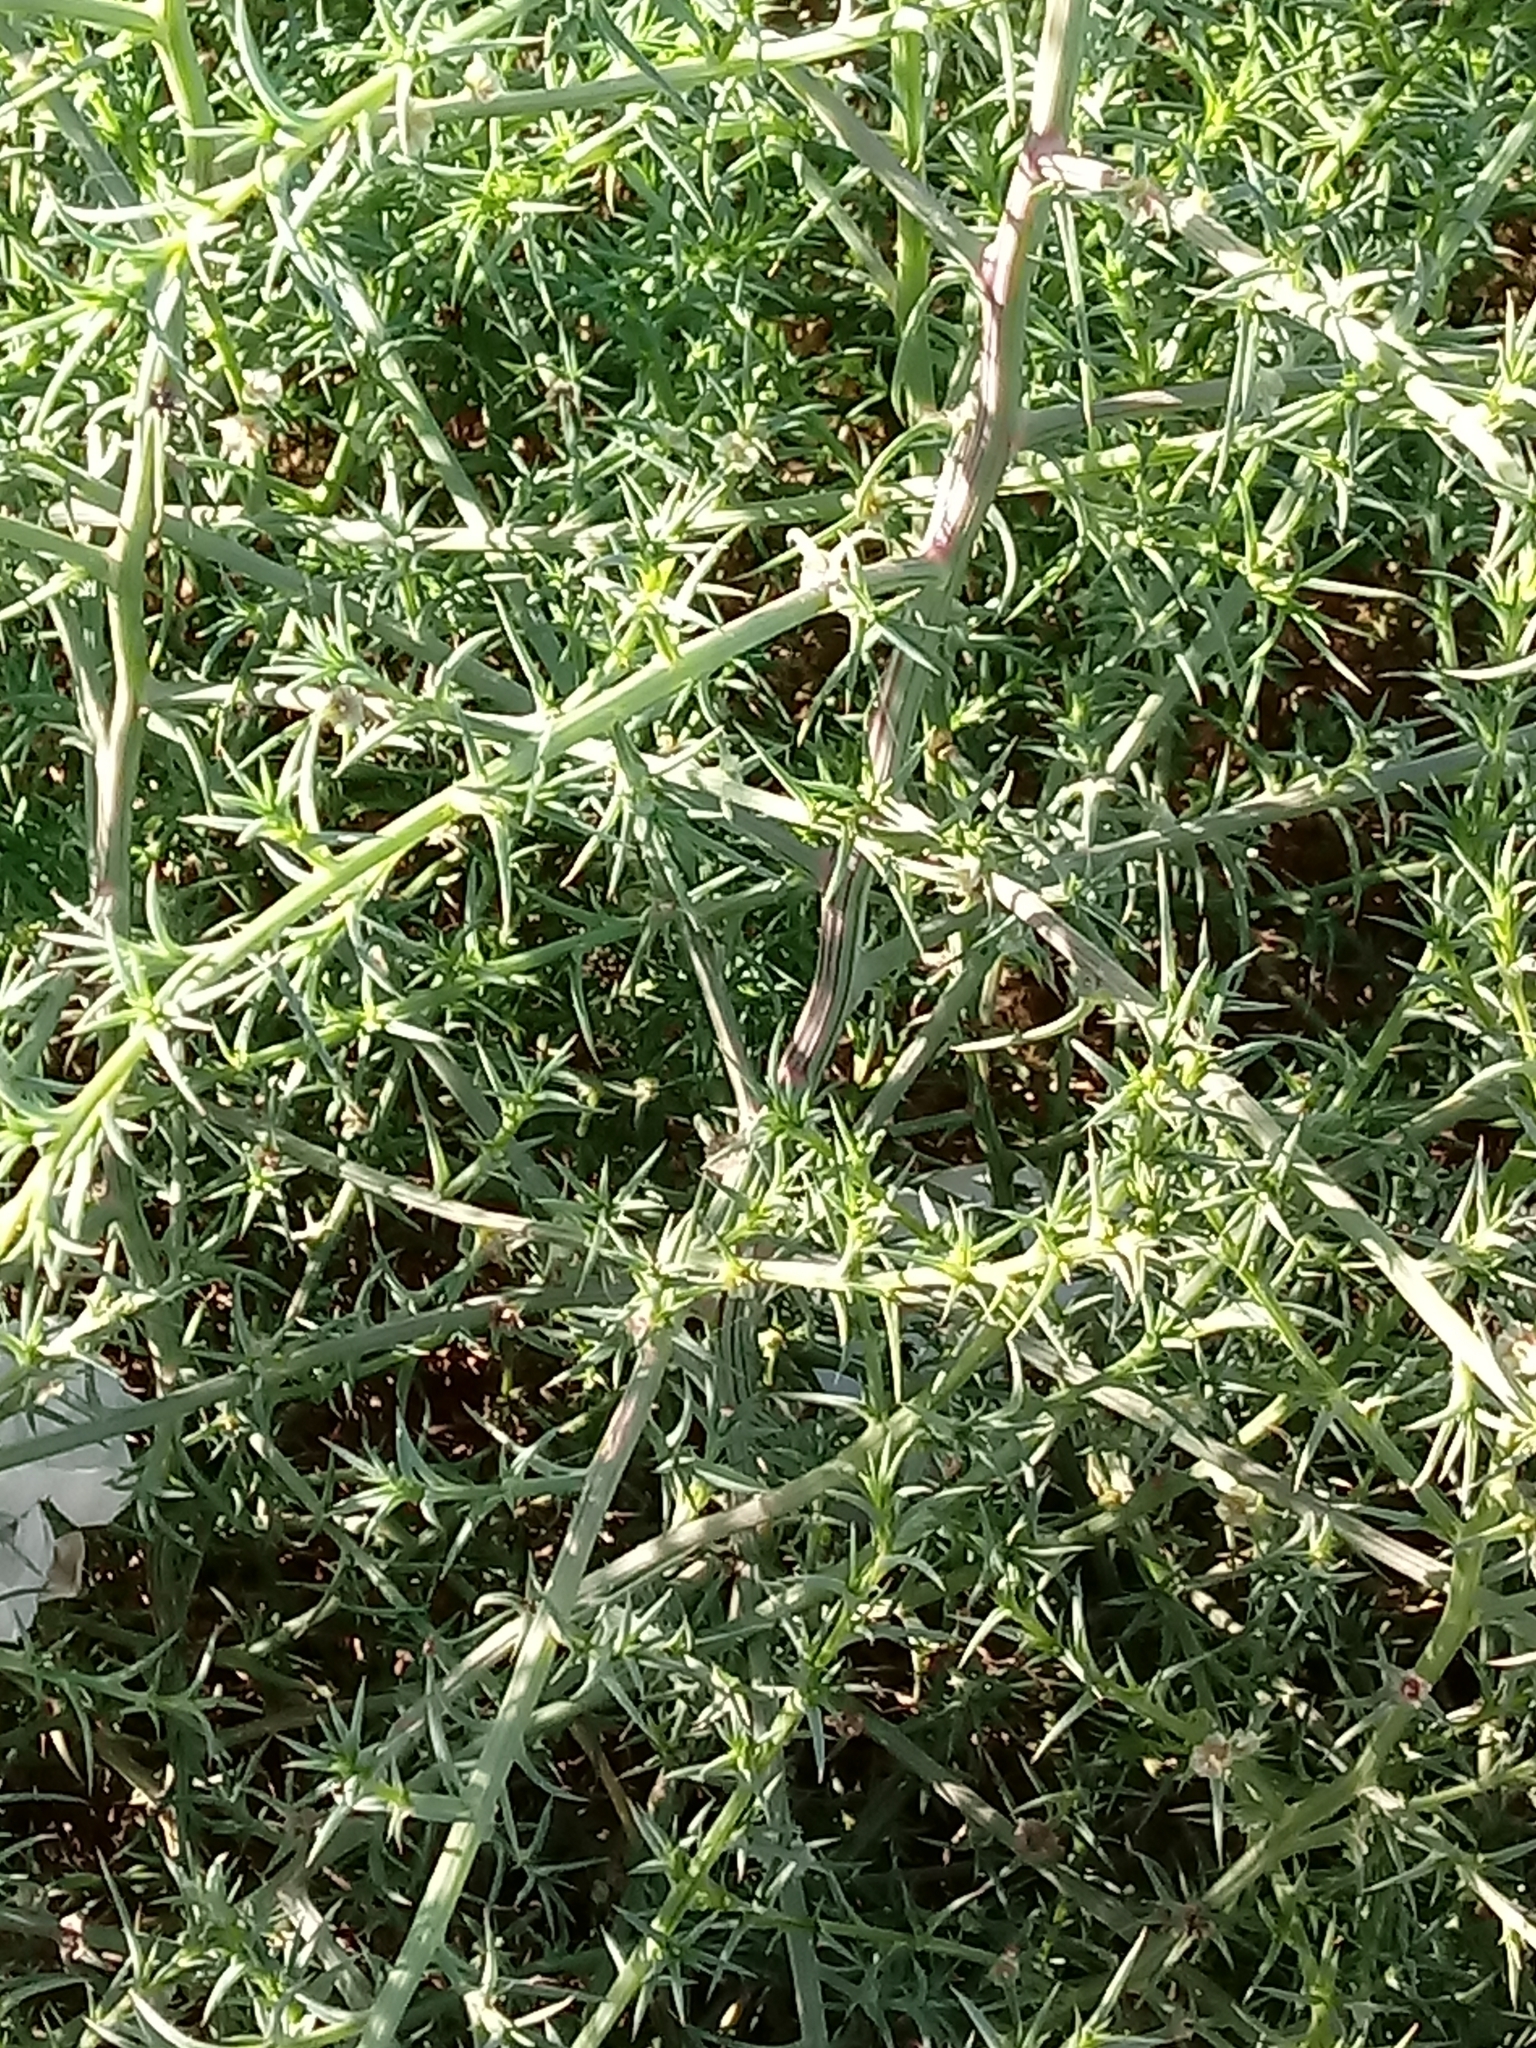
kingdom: Plantae
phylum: Tracheophyta
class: Magnoliopsida
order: Caryophyllales
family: Amaranthaceae
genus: Salsola
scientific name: Salsola kali
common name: Saltwort
